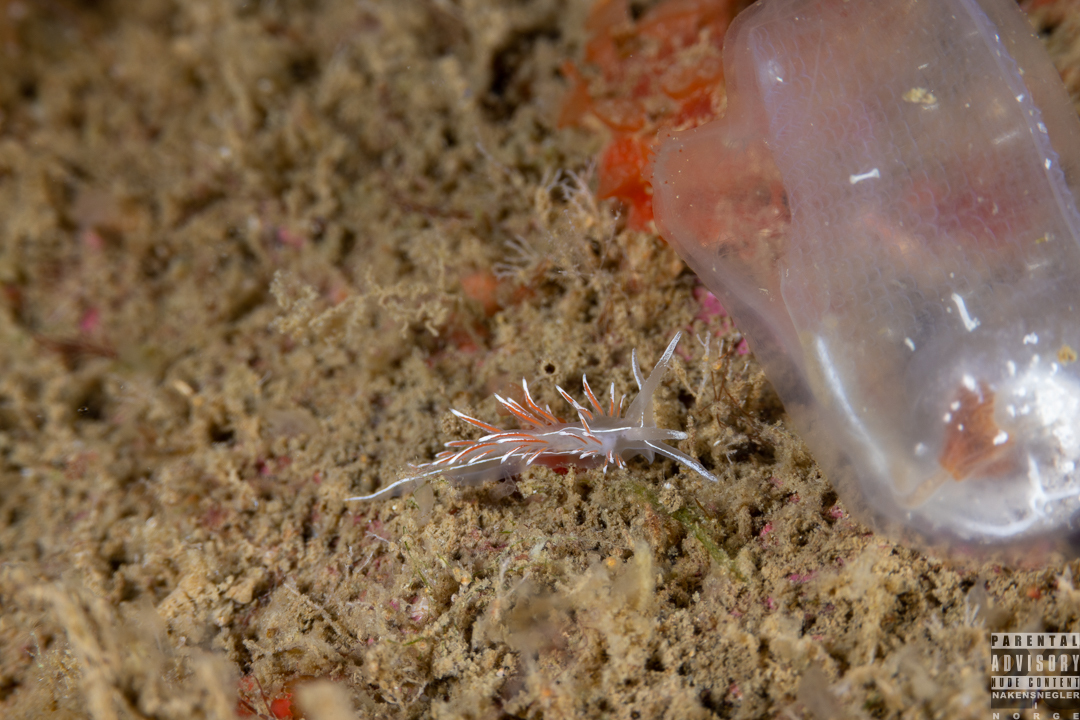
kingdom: Animalia
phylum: Mollusca
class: Gastropoda
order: Nudibranchia
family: Coryphellidae
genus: Coryphella
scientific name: Coryphella lineata
